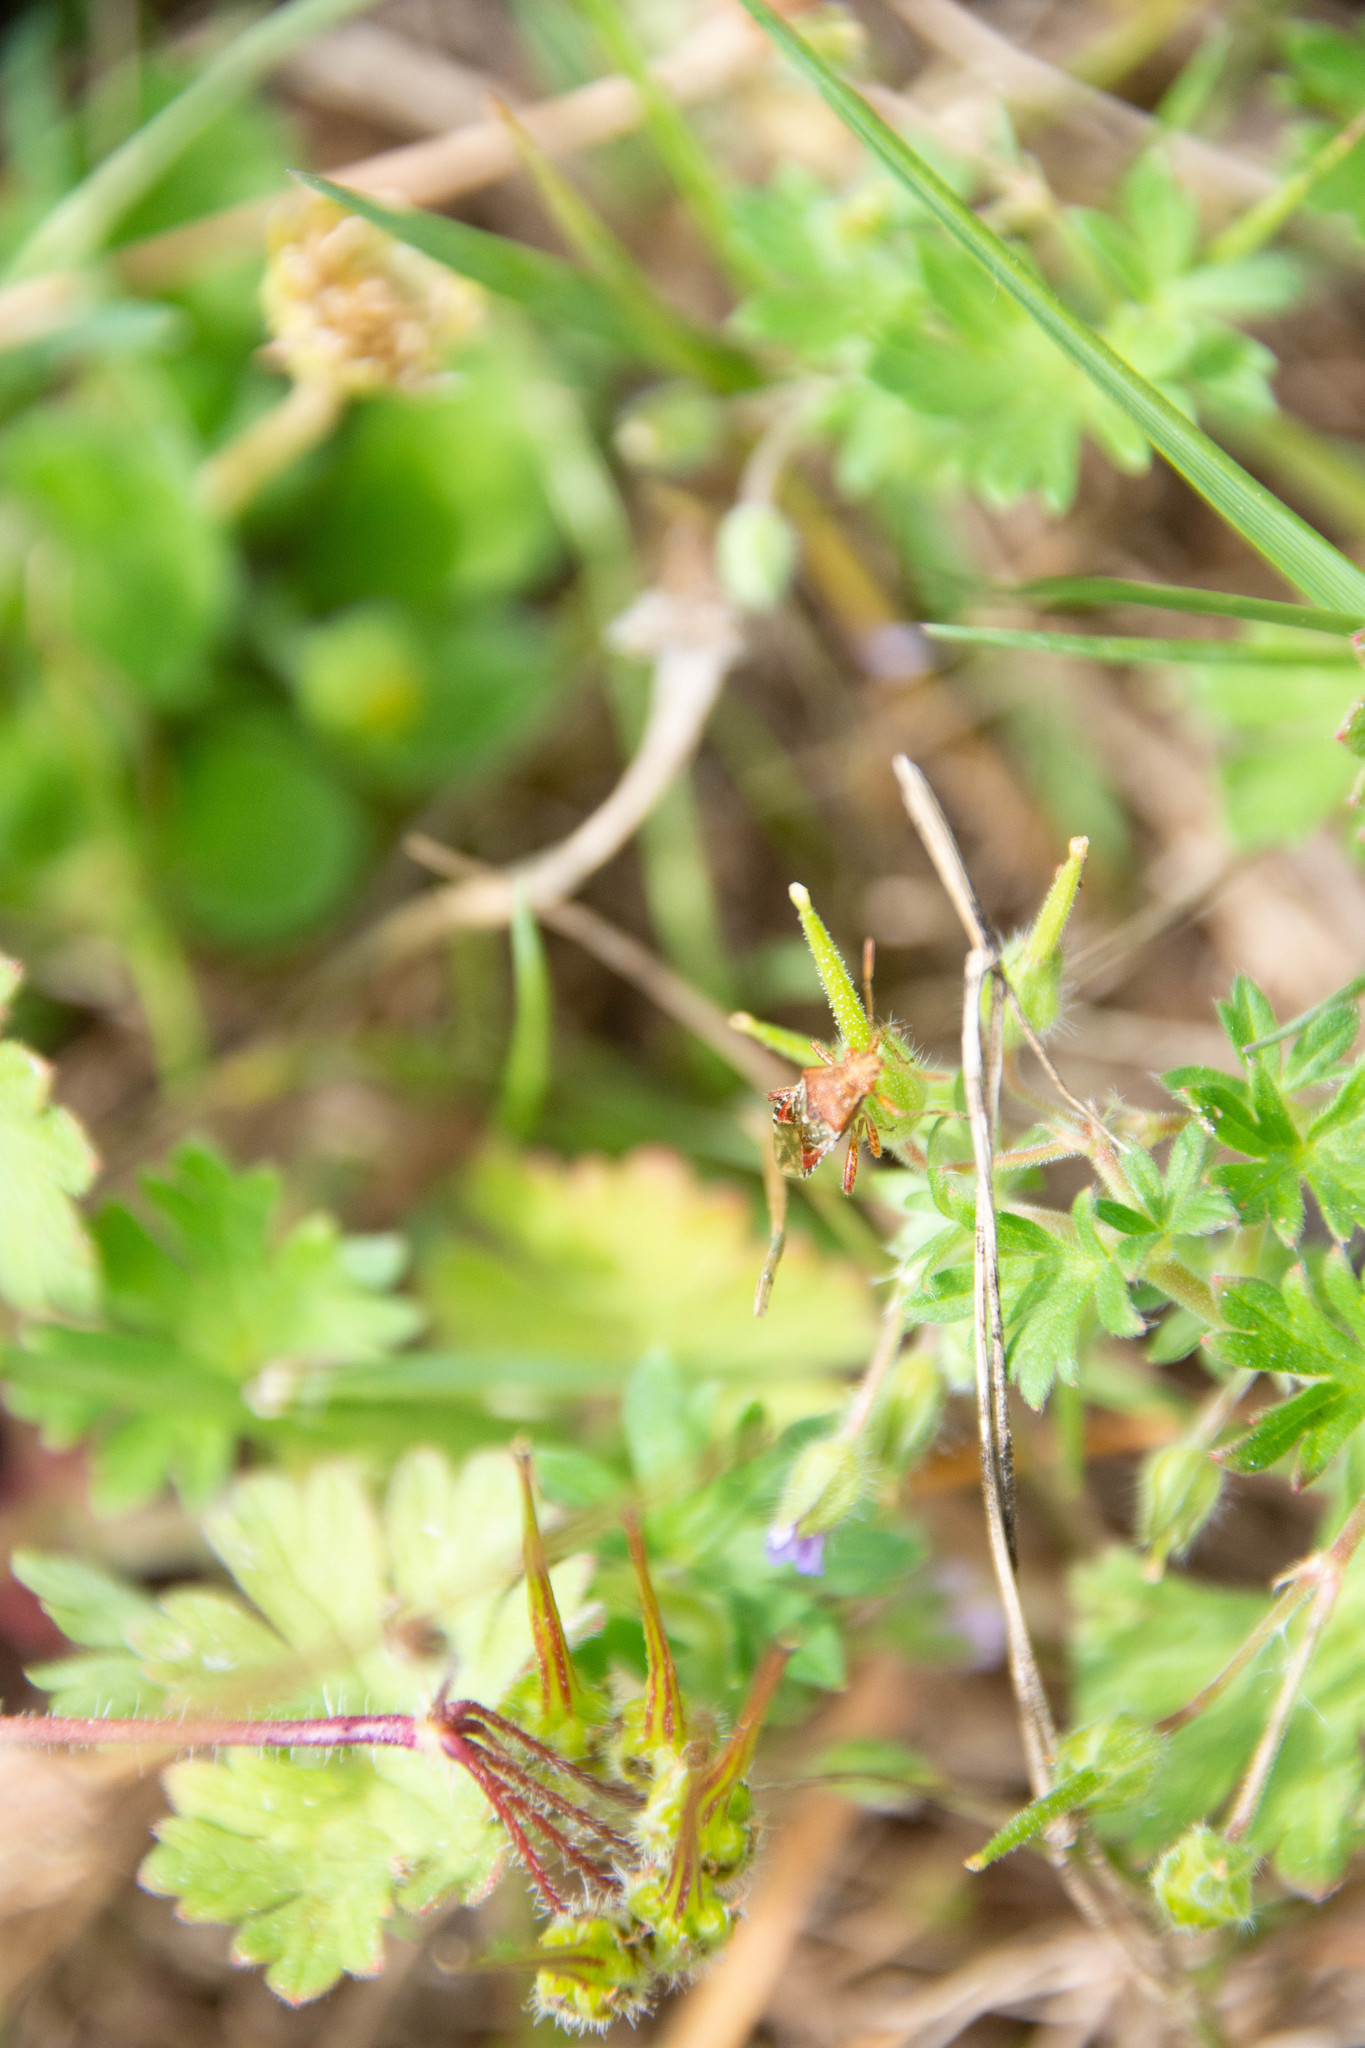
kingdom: Animalia
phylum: Arthropoda
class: Insecta
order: Hemiptera
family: Rhopalidae
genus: Rhopalus
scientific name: Rhopalus subrufus
